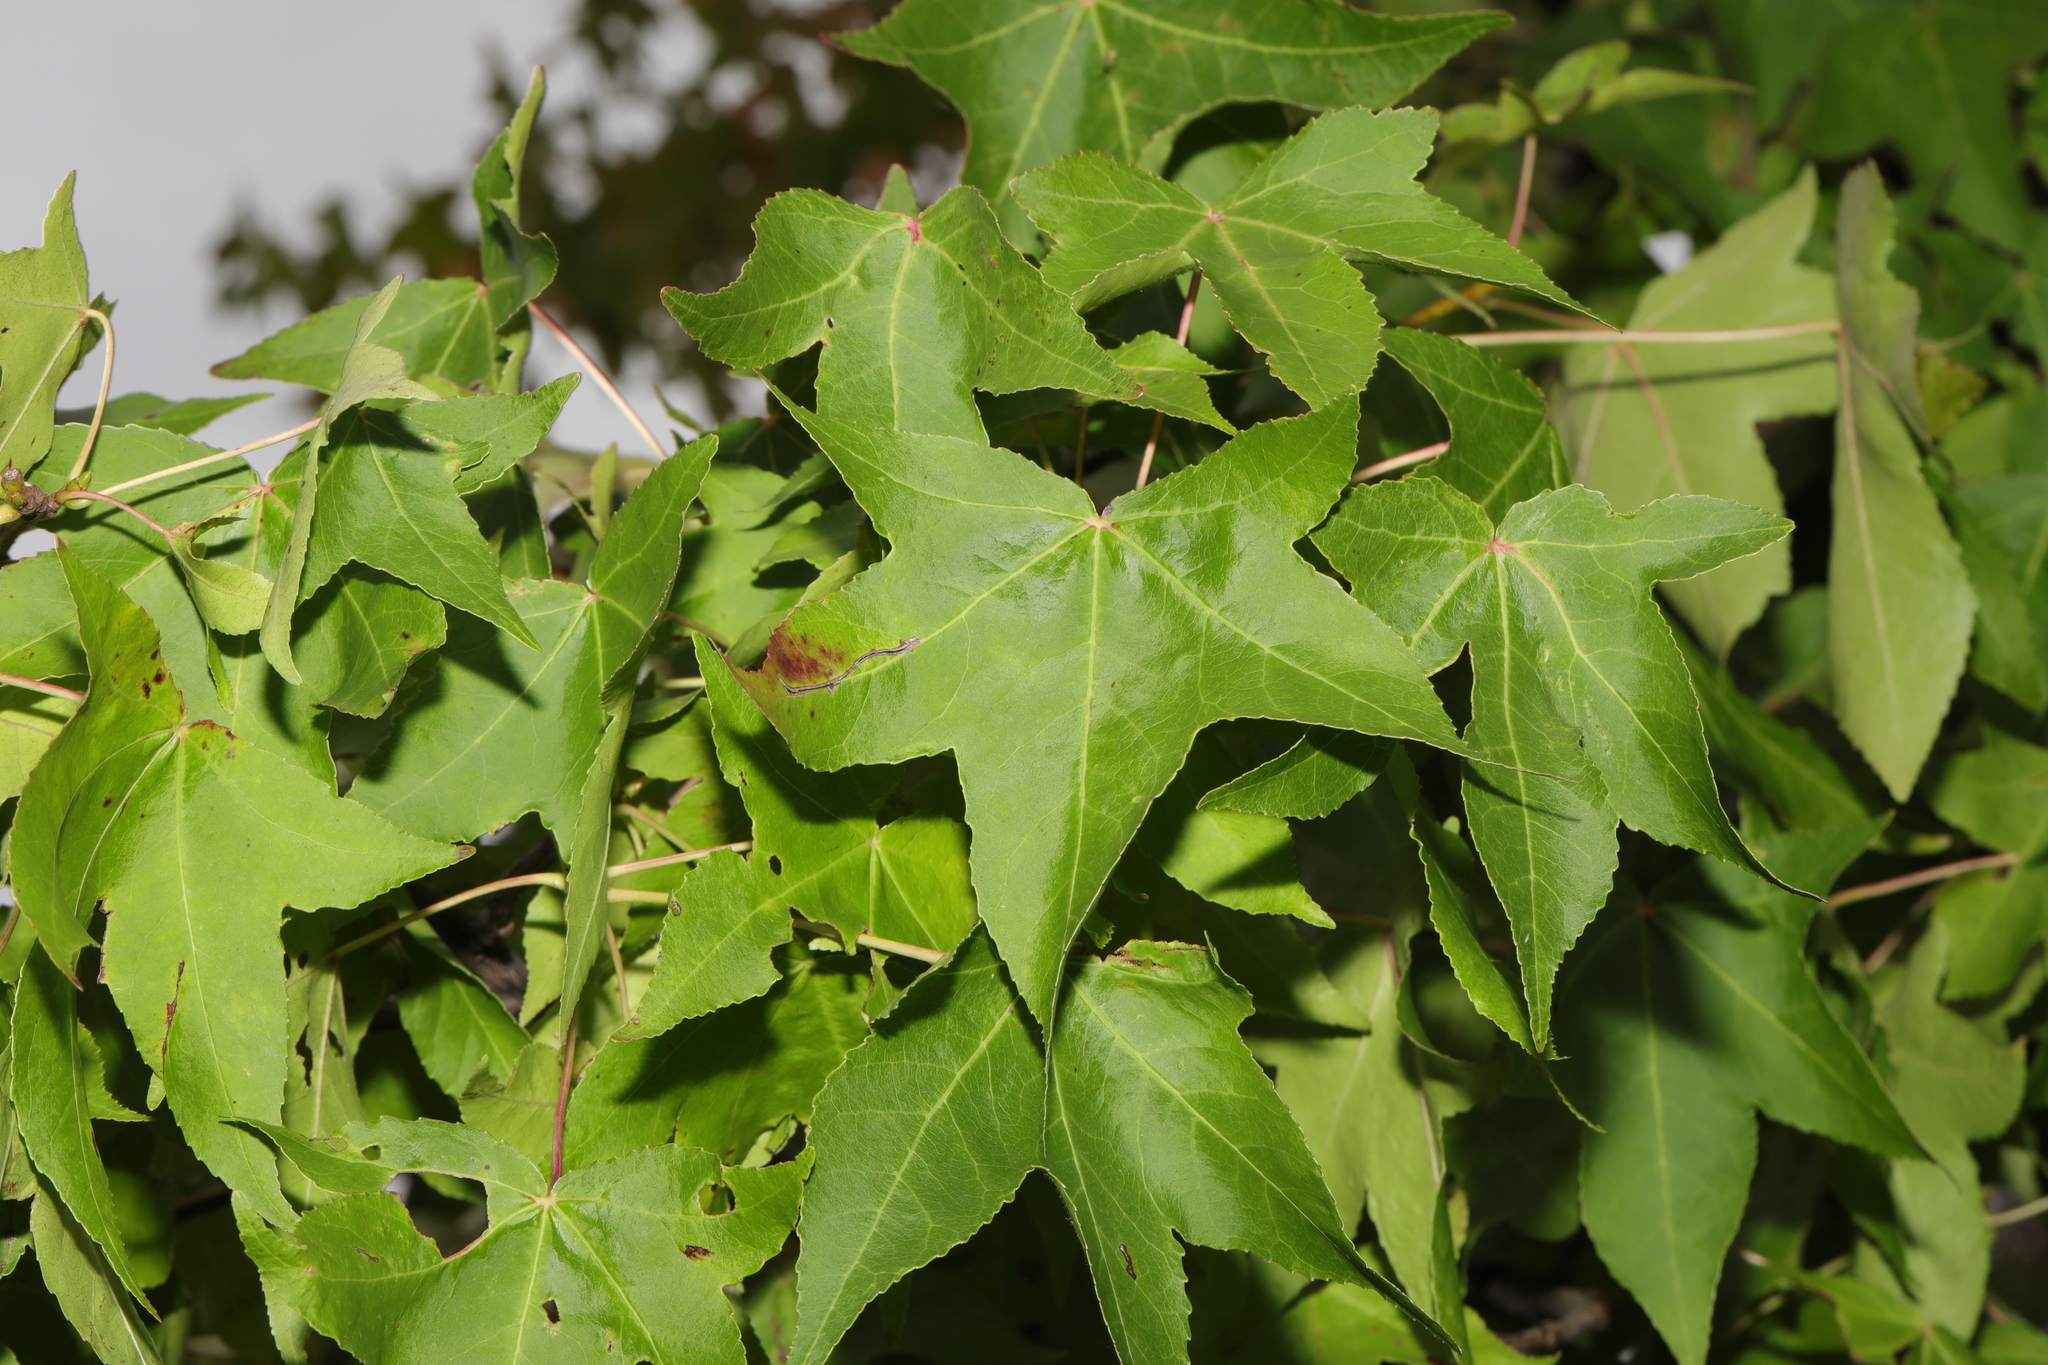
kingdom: Plantae
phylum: Tracheophyta
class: Magnoliopsida
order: Saxifragales
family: Altingiaceae
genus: Liquidambar
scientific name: Liquidambar styraciflua
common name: Sweet gum
